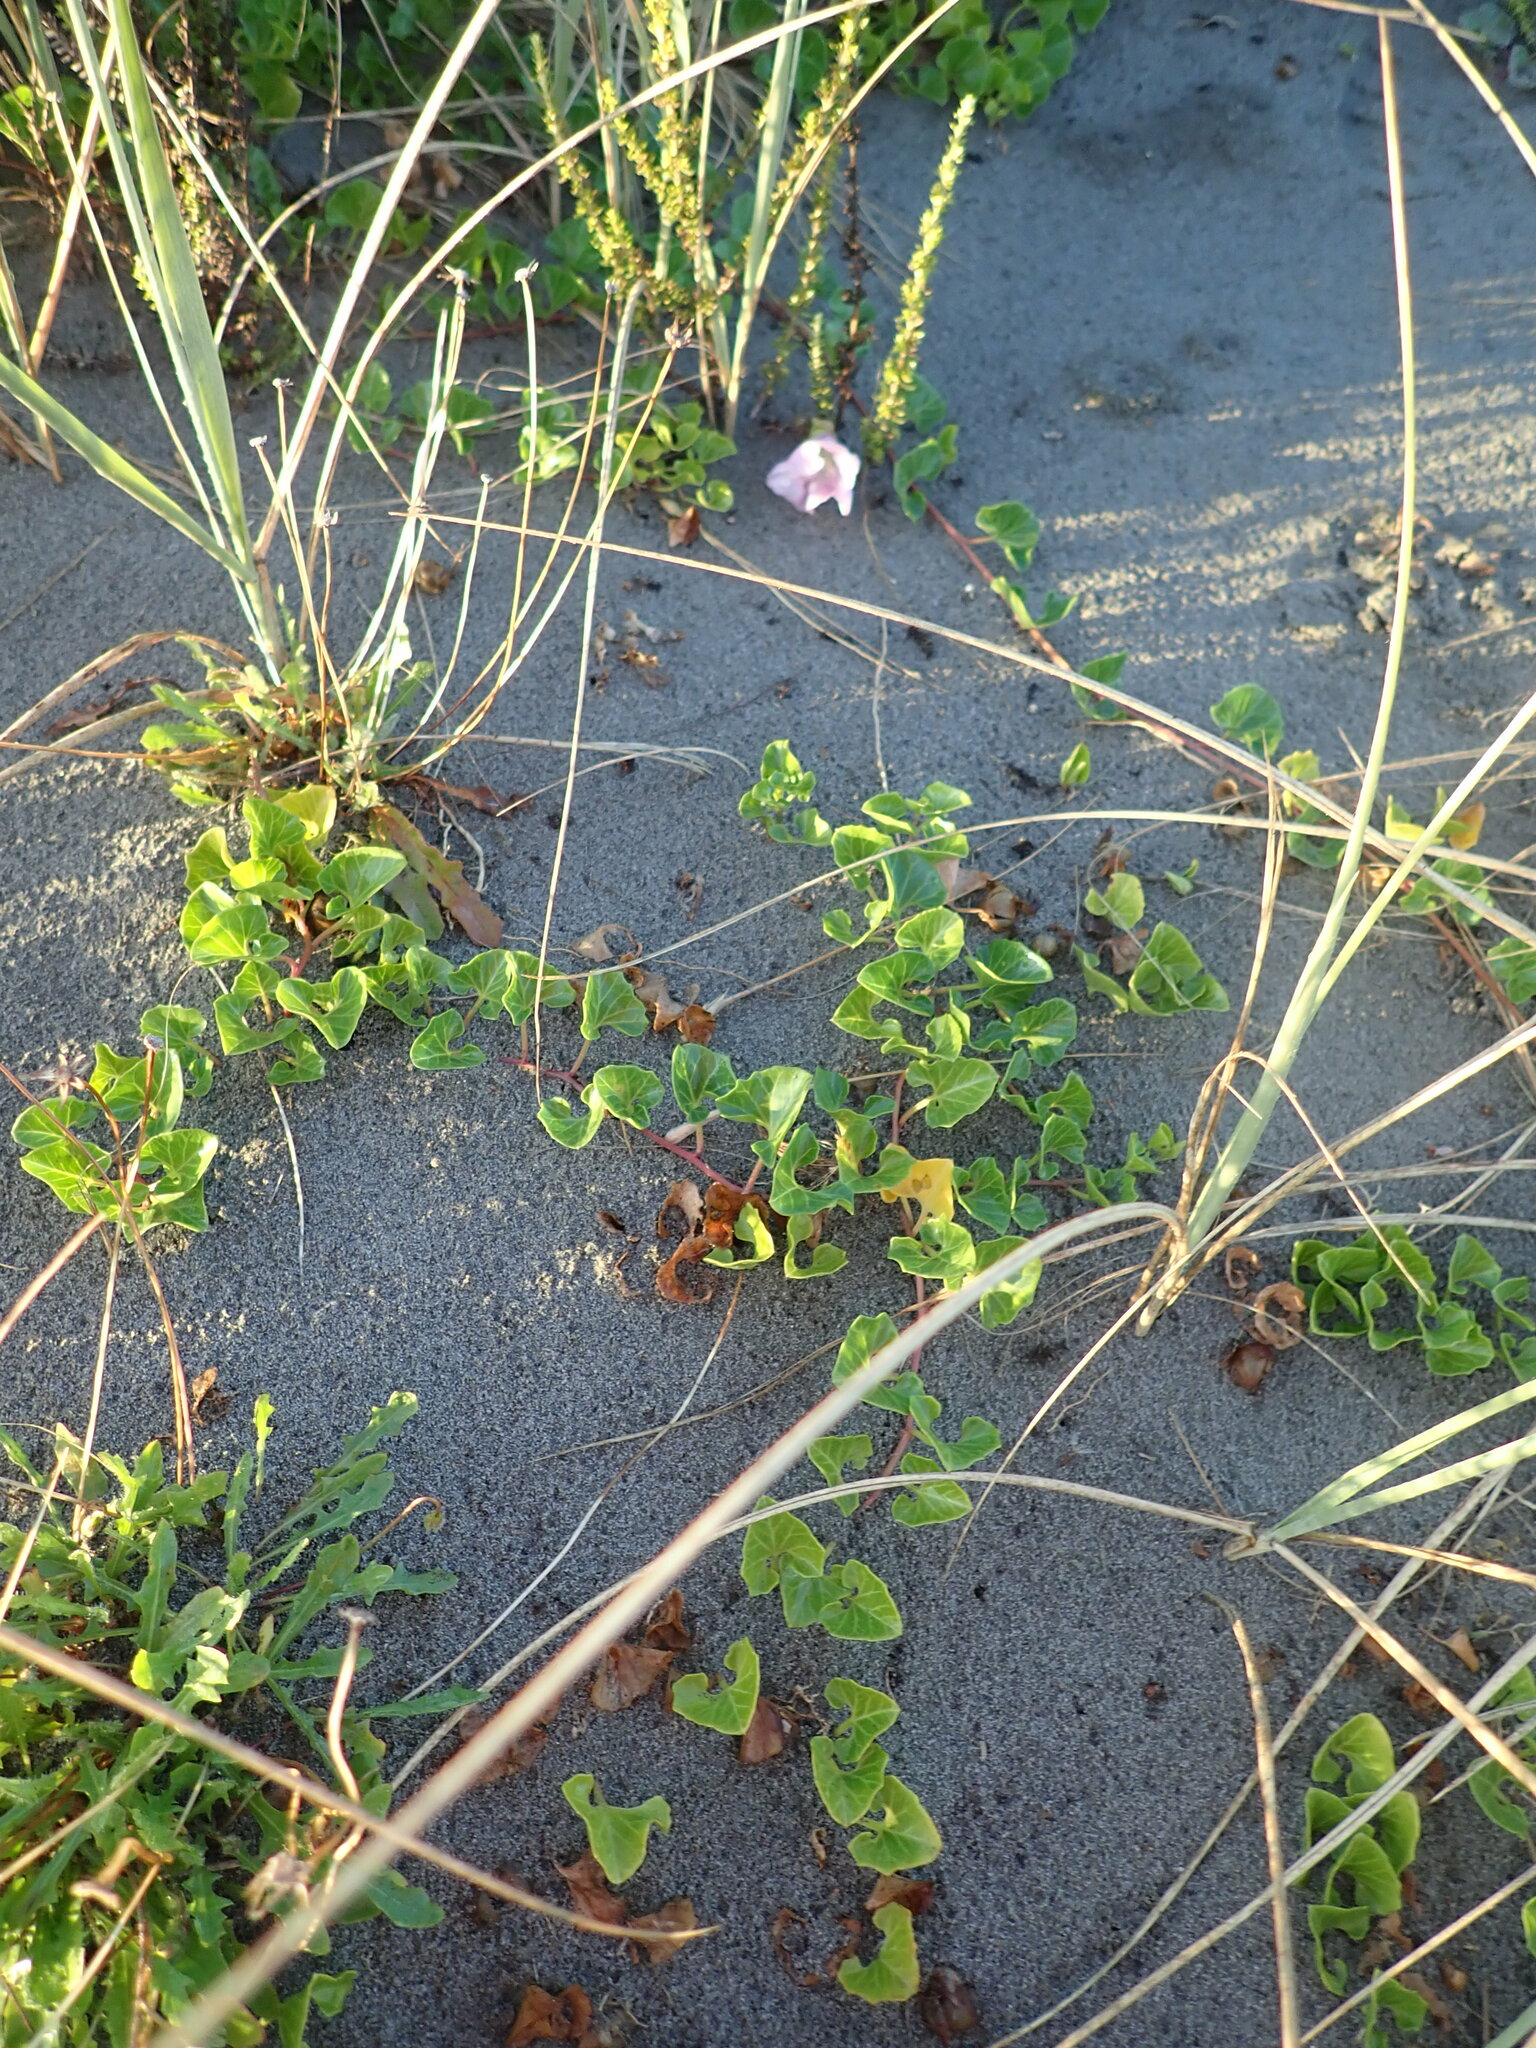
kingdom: Plantae
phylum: Tracheophyta
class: Magnoliopsida
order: Solanales
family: Convolvulaceae
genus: Calystegia
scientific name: Calystegia soldanella
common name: Sea bindweed
